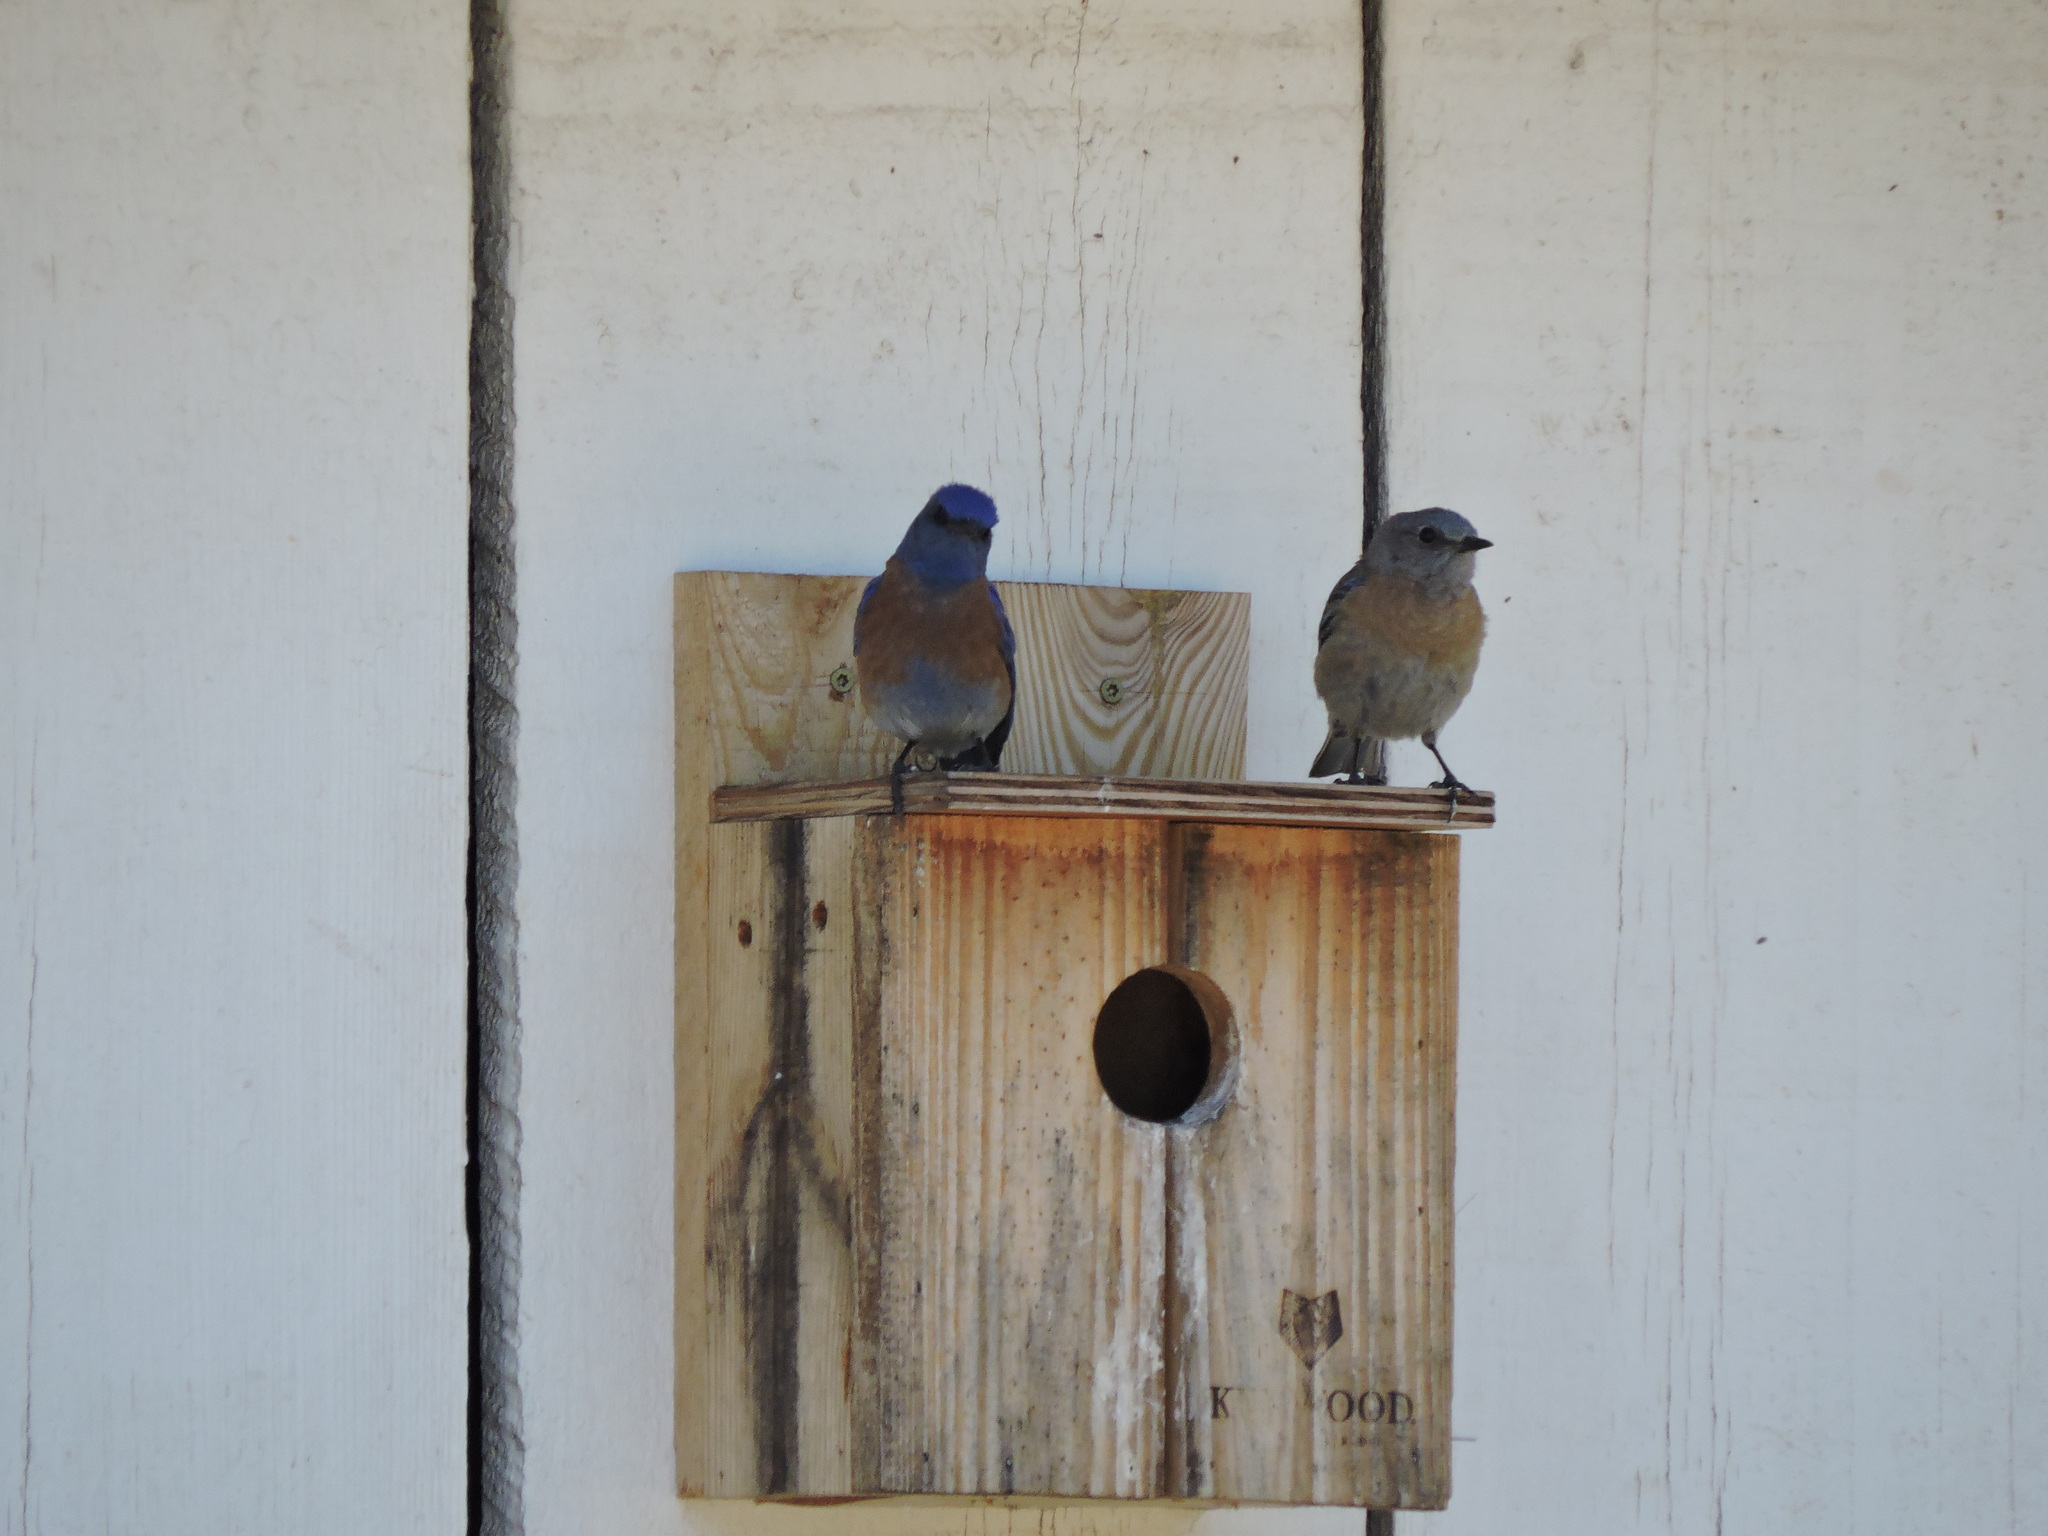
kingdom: Animalia
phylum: Chordata
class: Aves
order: Passeriformes
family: Turdidae
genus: Sialia
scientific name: Sialia mexicana
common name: Western bluebird
